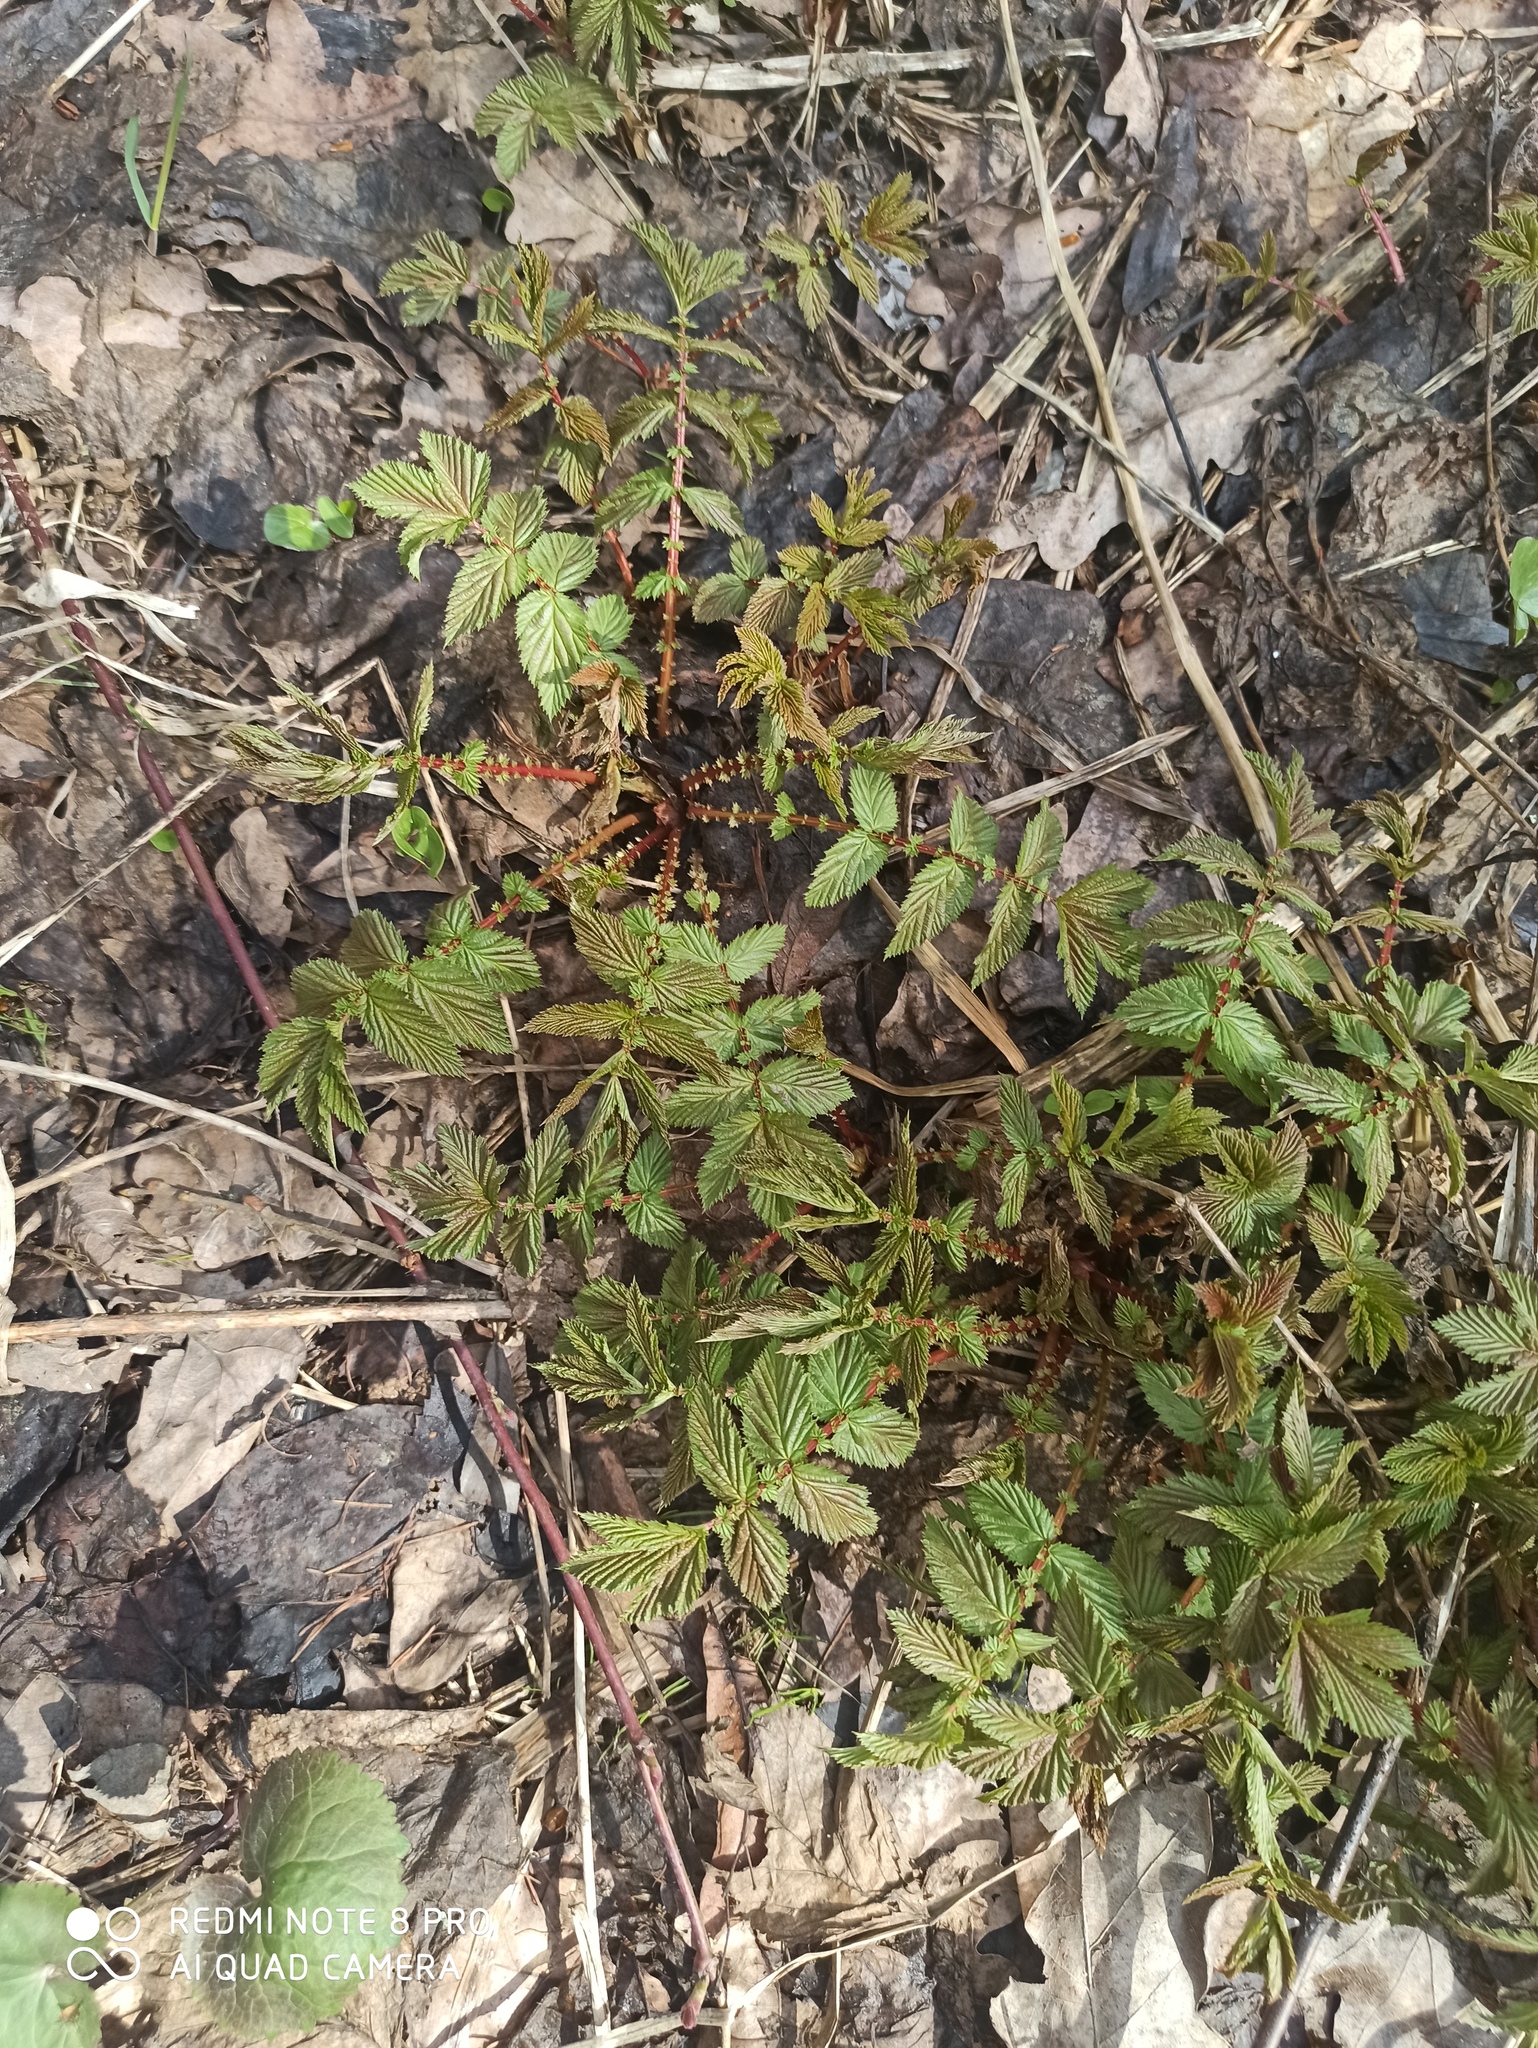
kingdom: Plantae
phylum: Tracheophyta
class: Magnoliopsida
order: Rosales
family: Rosaceae
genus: Filipendula
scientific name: Filipendula ulmaria
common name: Meadowsweet
